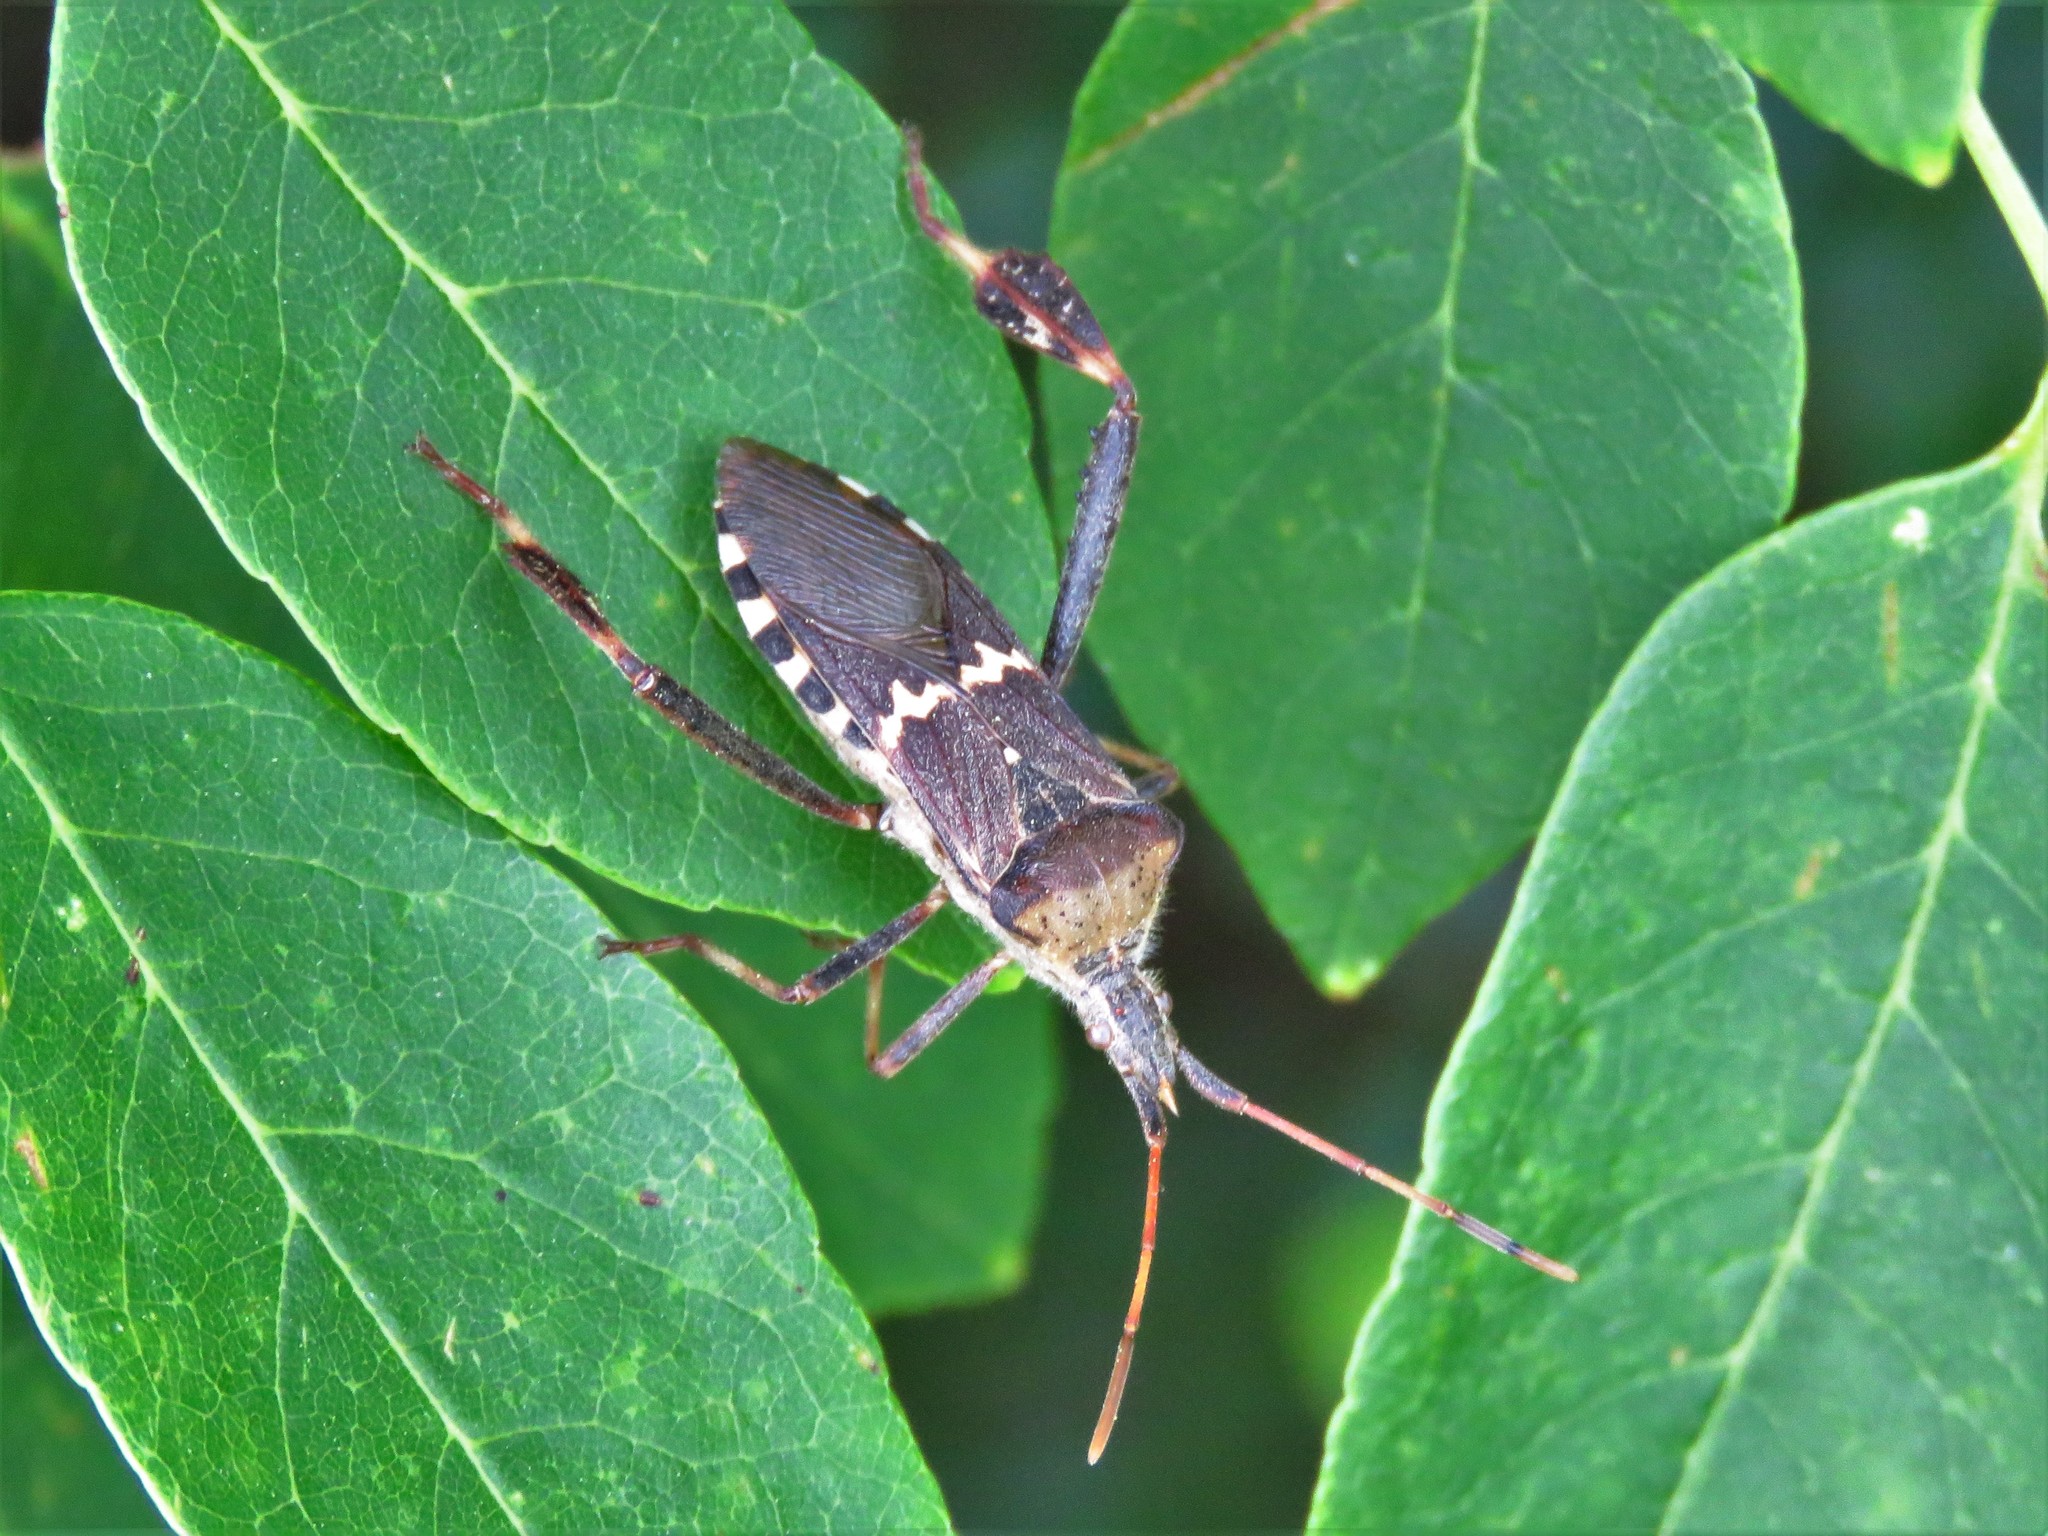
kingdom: Animalia
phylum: Arthropoda
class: Insecta
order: Hemiptera
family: Coreidae
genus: Leptoglossus
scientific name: Leptoglossus clypealis
